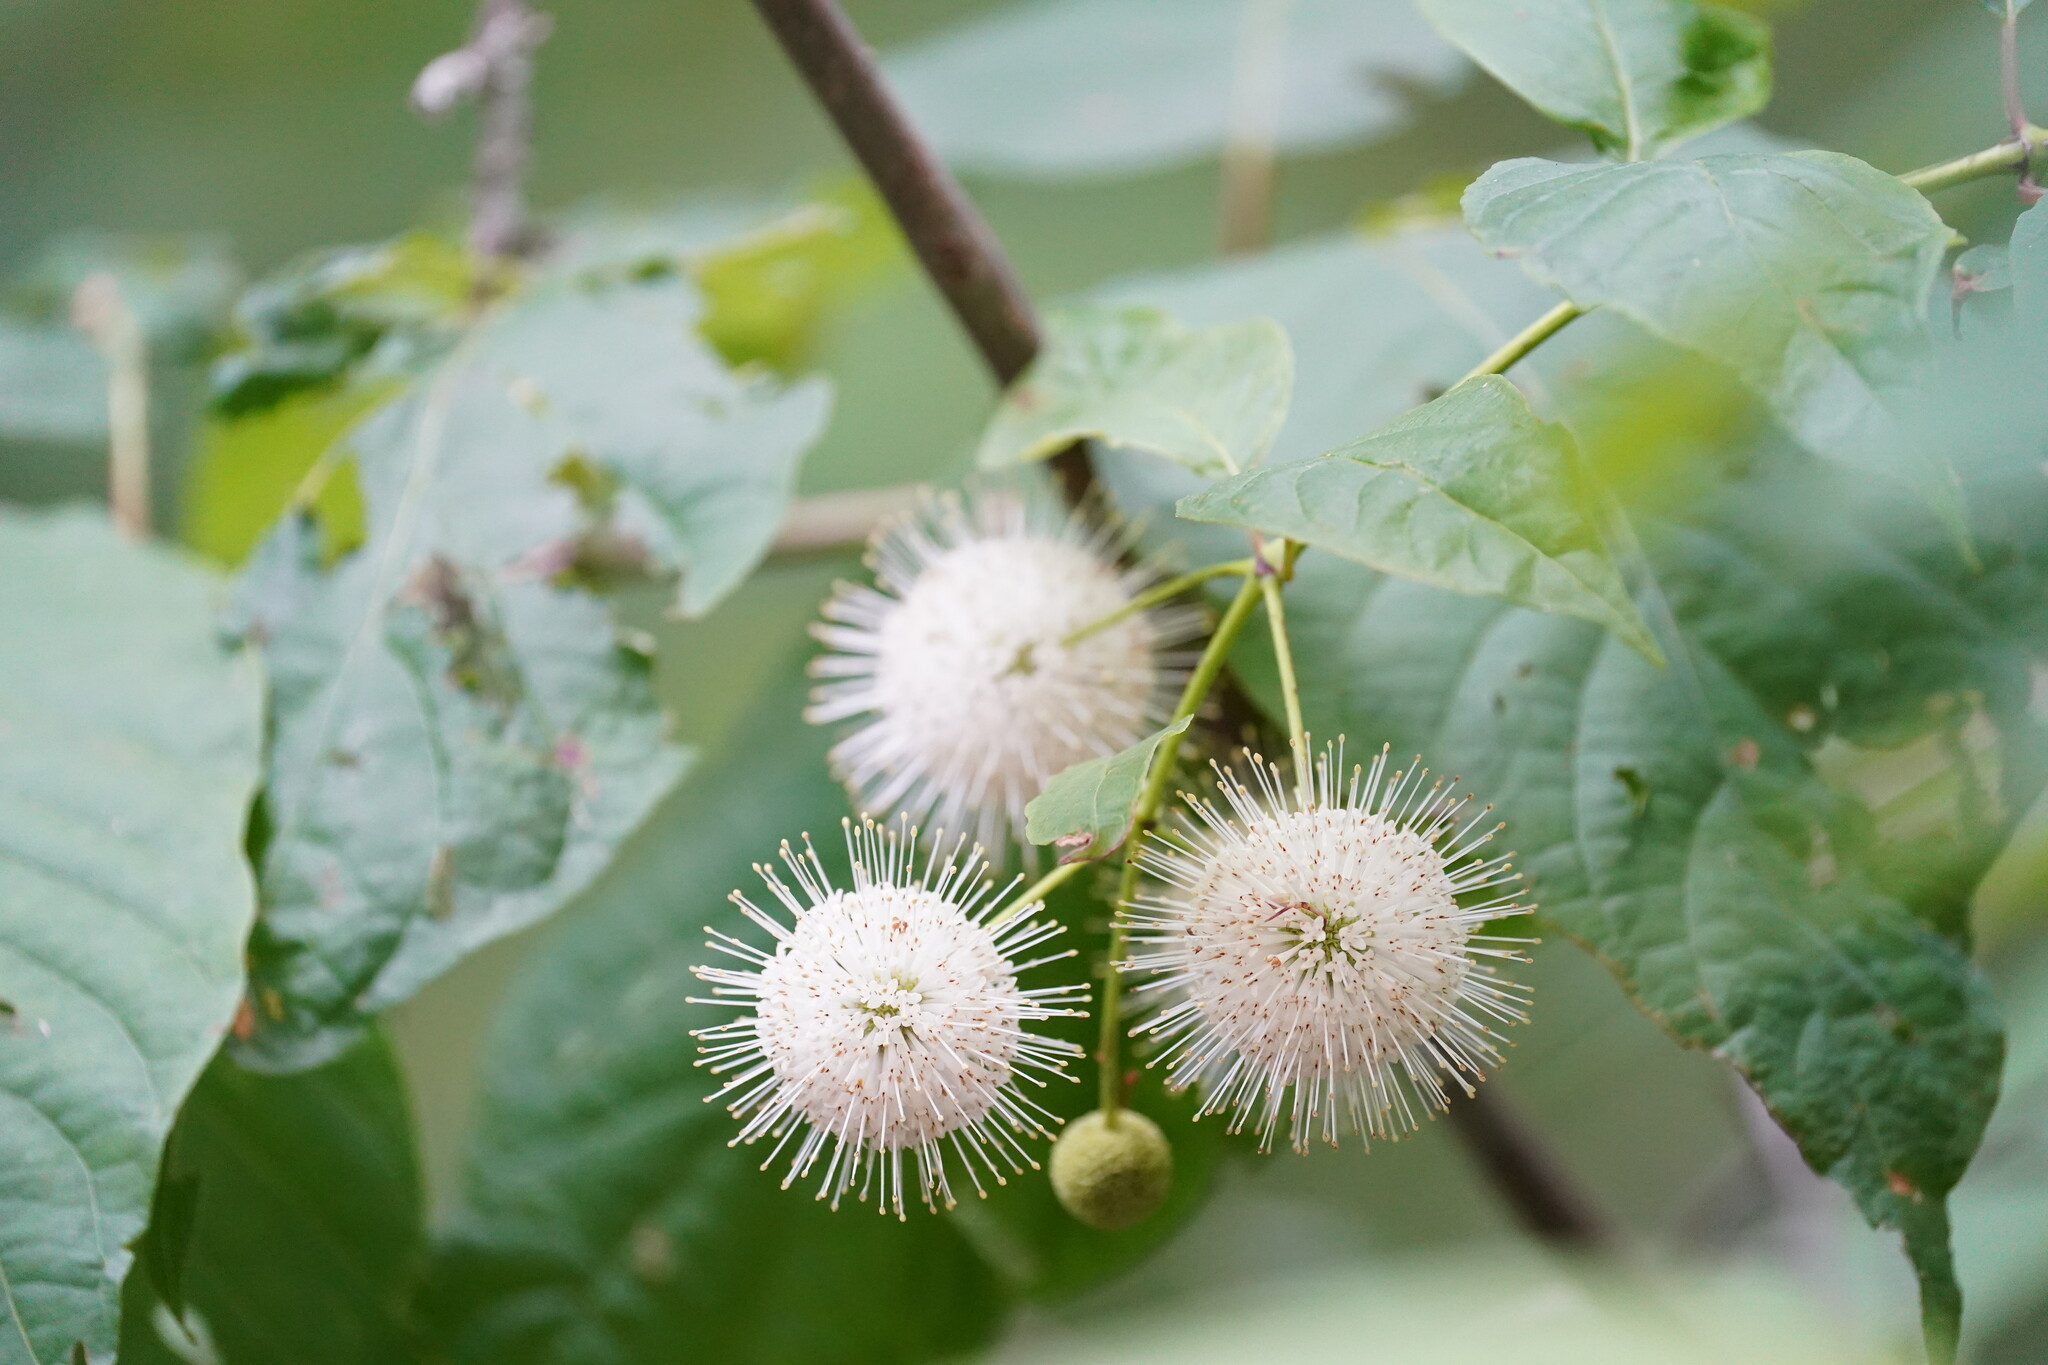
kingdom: Plantae
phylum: Tracheophyta
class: Magnoliopsida
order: Gentianales
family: Rubiaceae
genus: Cephalanthus
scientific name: Cephalanthus occidentalis
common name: Button-willow
